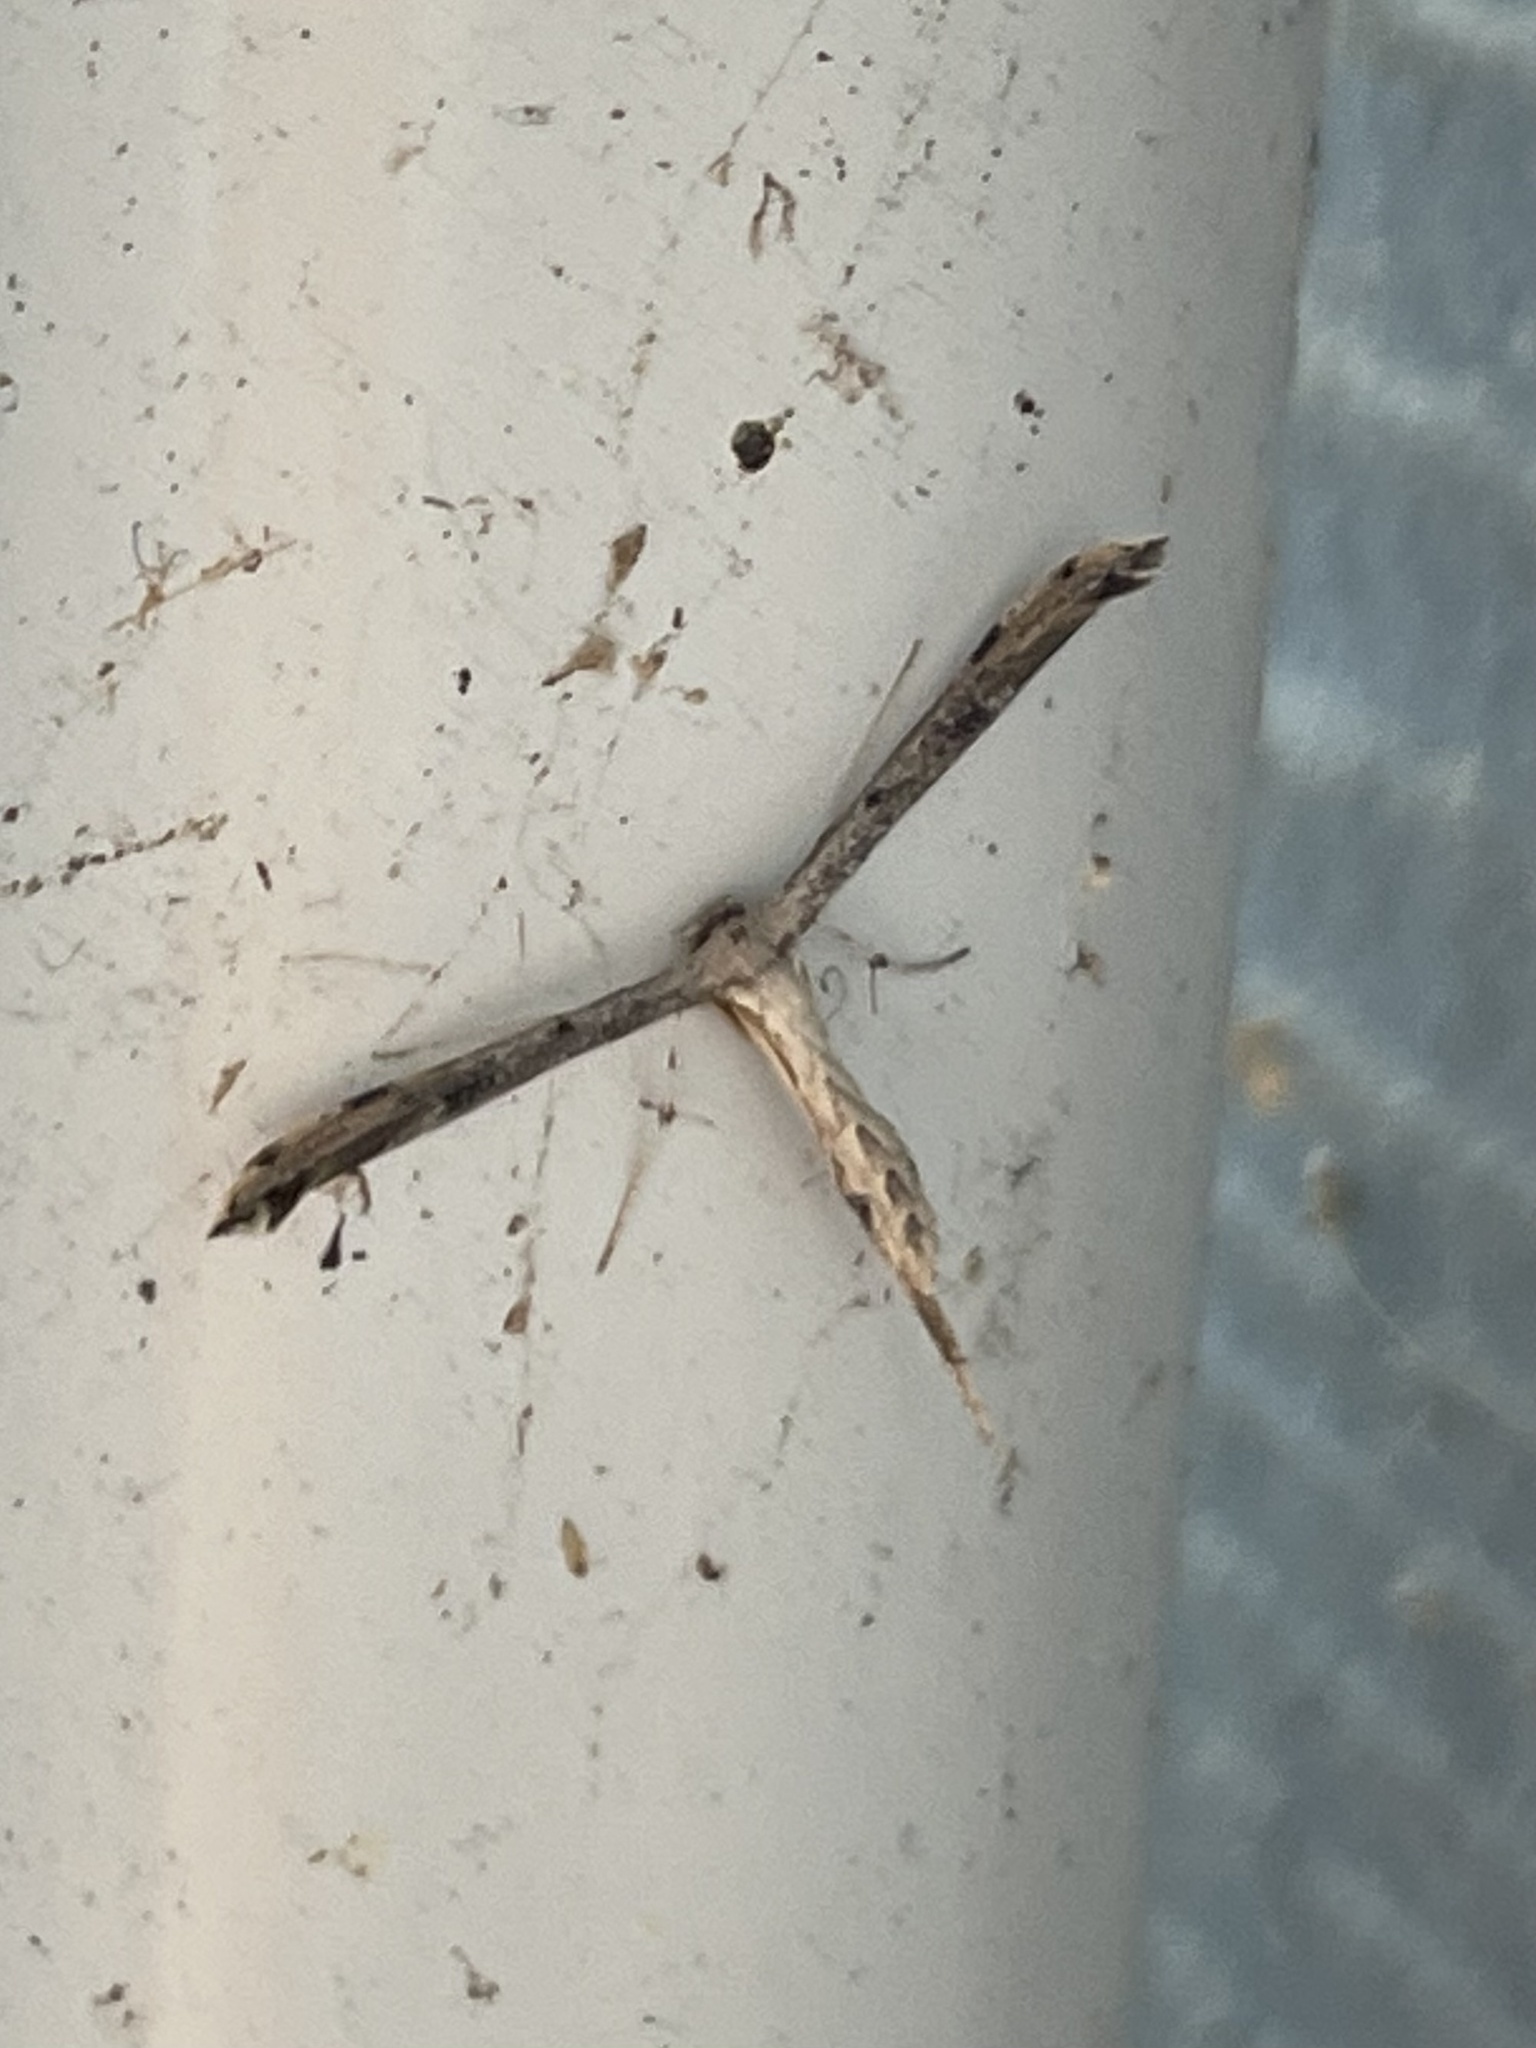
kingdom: Animalia
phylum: Arthropoda
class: Insecta
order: Lepidoptera
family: Pterophoridae
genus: Adaina
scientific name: Adaina ambrosiae
